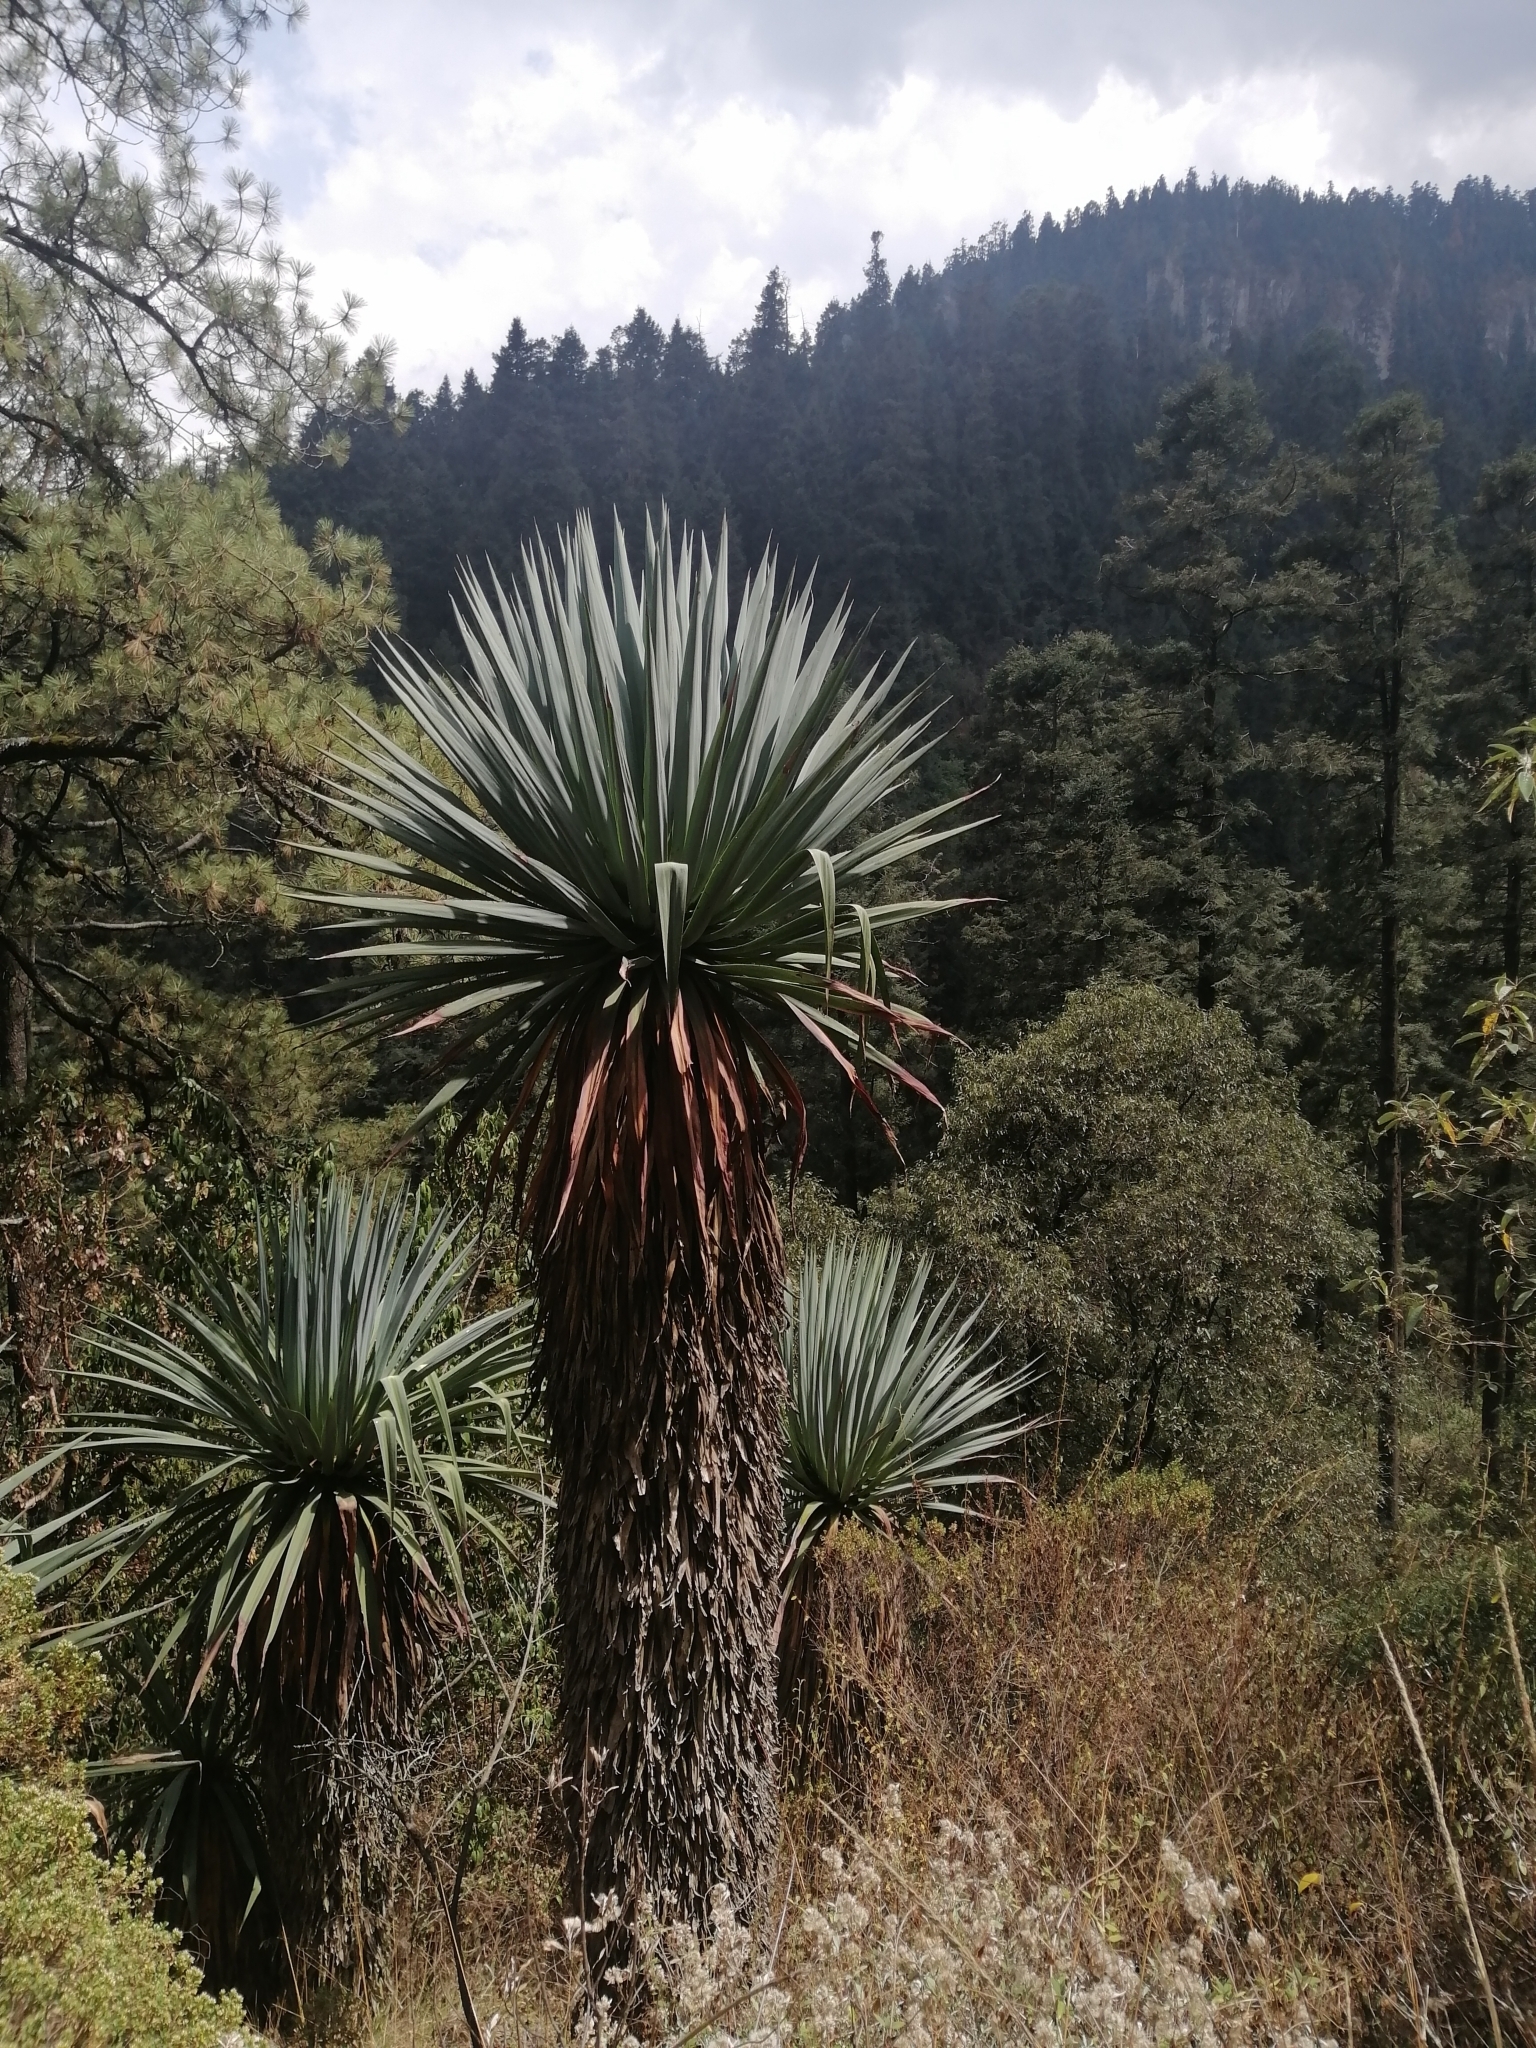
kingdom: Plantae
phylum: Tracheophyta
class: Liliopsida
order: Asparagales
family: Asparagaceae
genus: Furcraea
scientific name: Furcraea parmentieri
